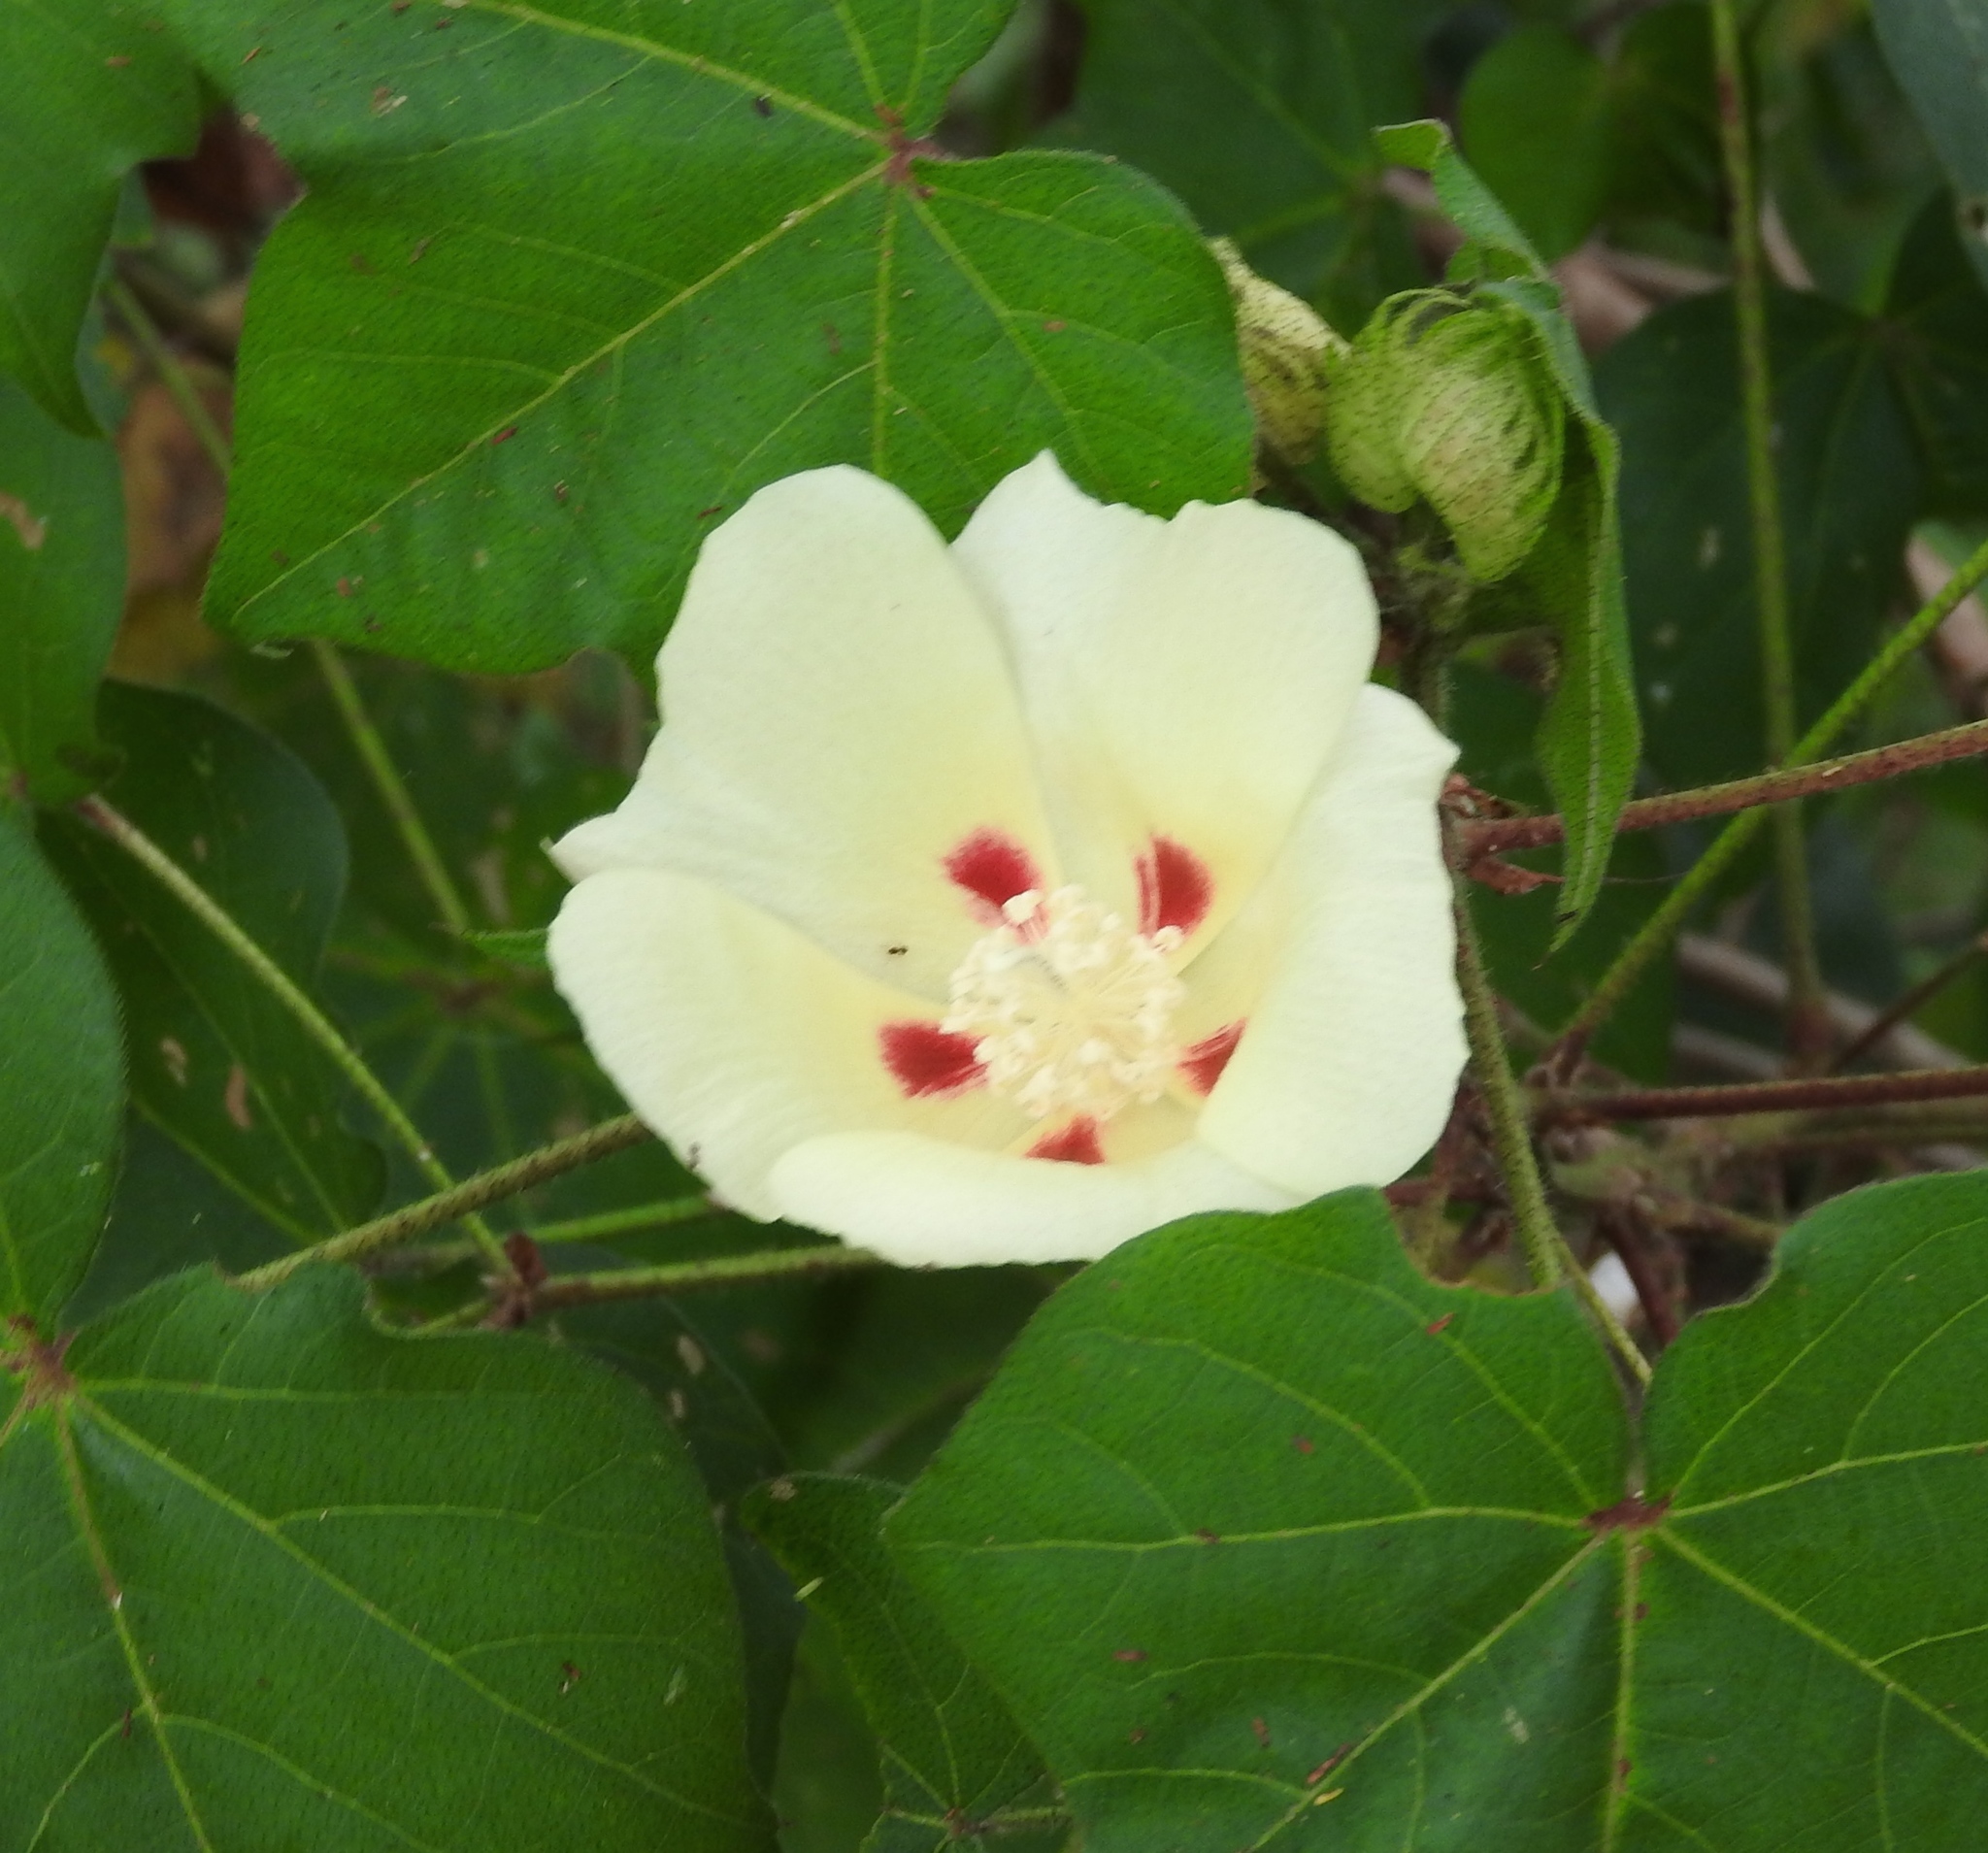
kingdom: Plantae
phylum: Tracheophyta
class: Magnoliopsida
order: Malvales
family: Malvaceae
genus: Gossypium
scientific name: Gossypium hirsutum
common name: Cotton
